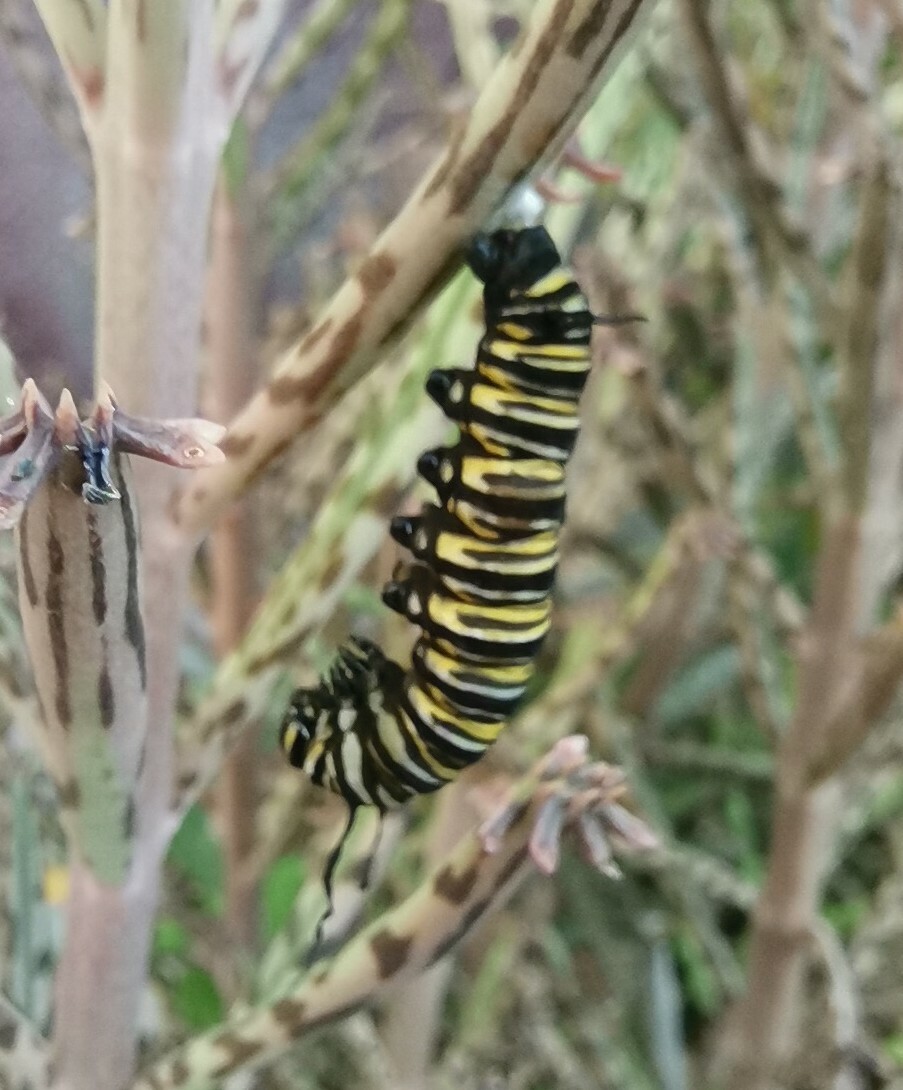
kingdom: Animalia
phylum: Arthropoda
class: Insecta
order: Lepidoptera
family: Nymphalidae
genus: Danaus
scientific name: Danaus plexippus
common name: Monarch
